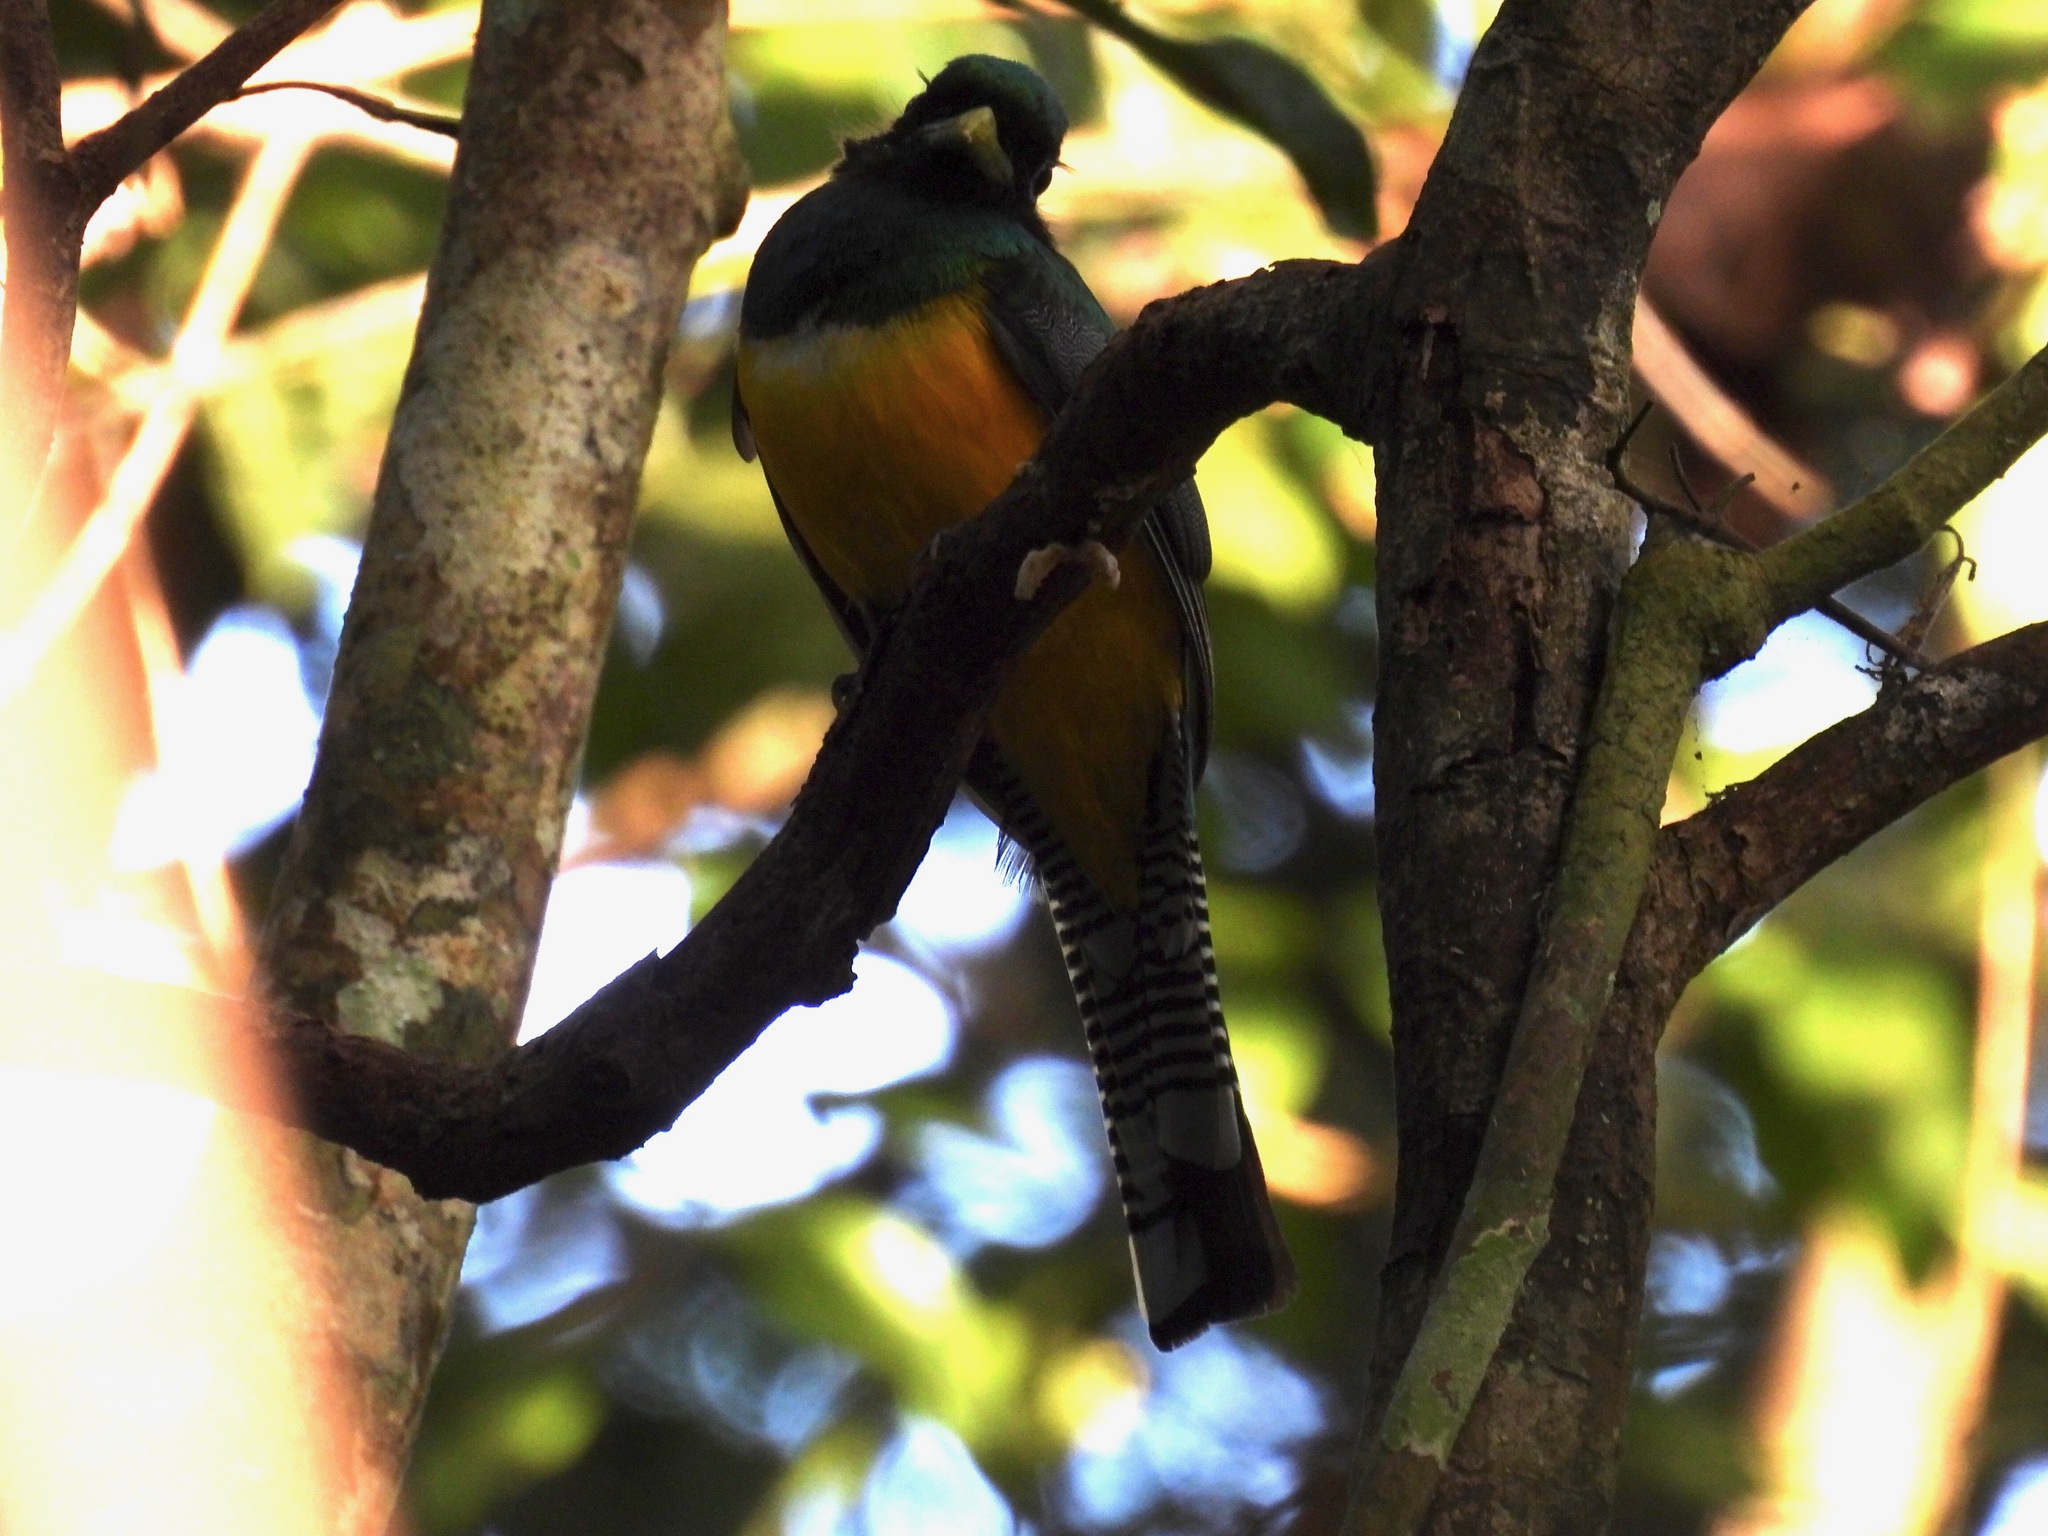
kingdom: Animalia
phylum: Chordata
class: Aves
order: Trogoniformes
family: Trogonidae
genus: Trogon
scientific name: Trogon rufus
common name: Black-throated trogon
